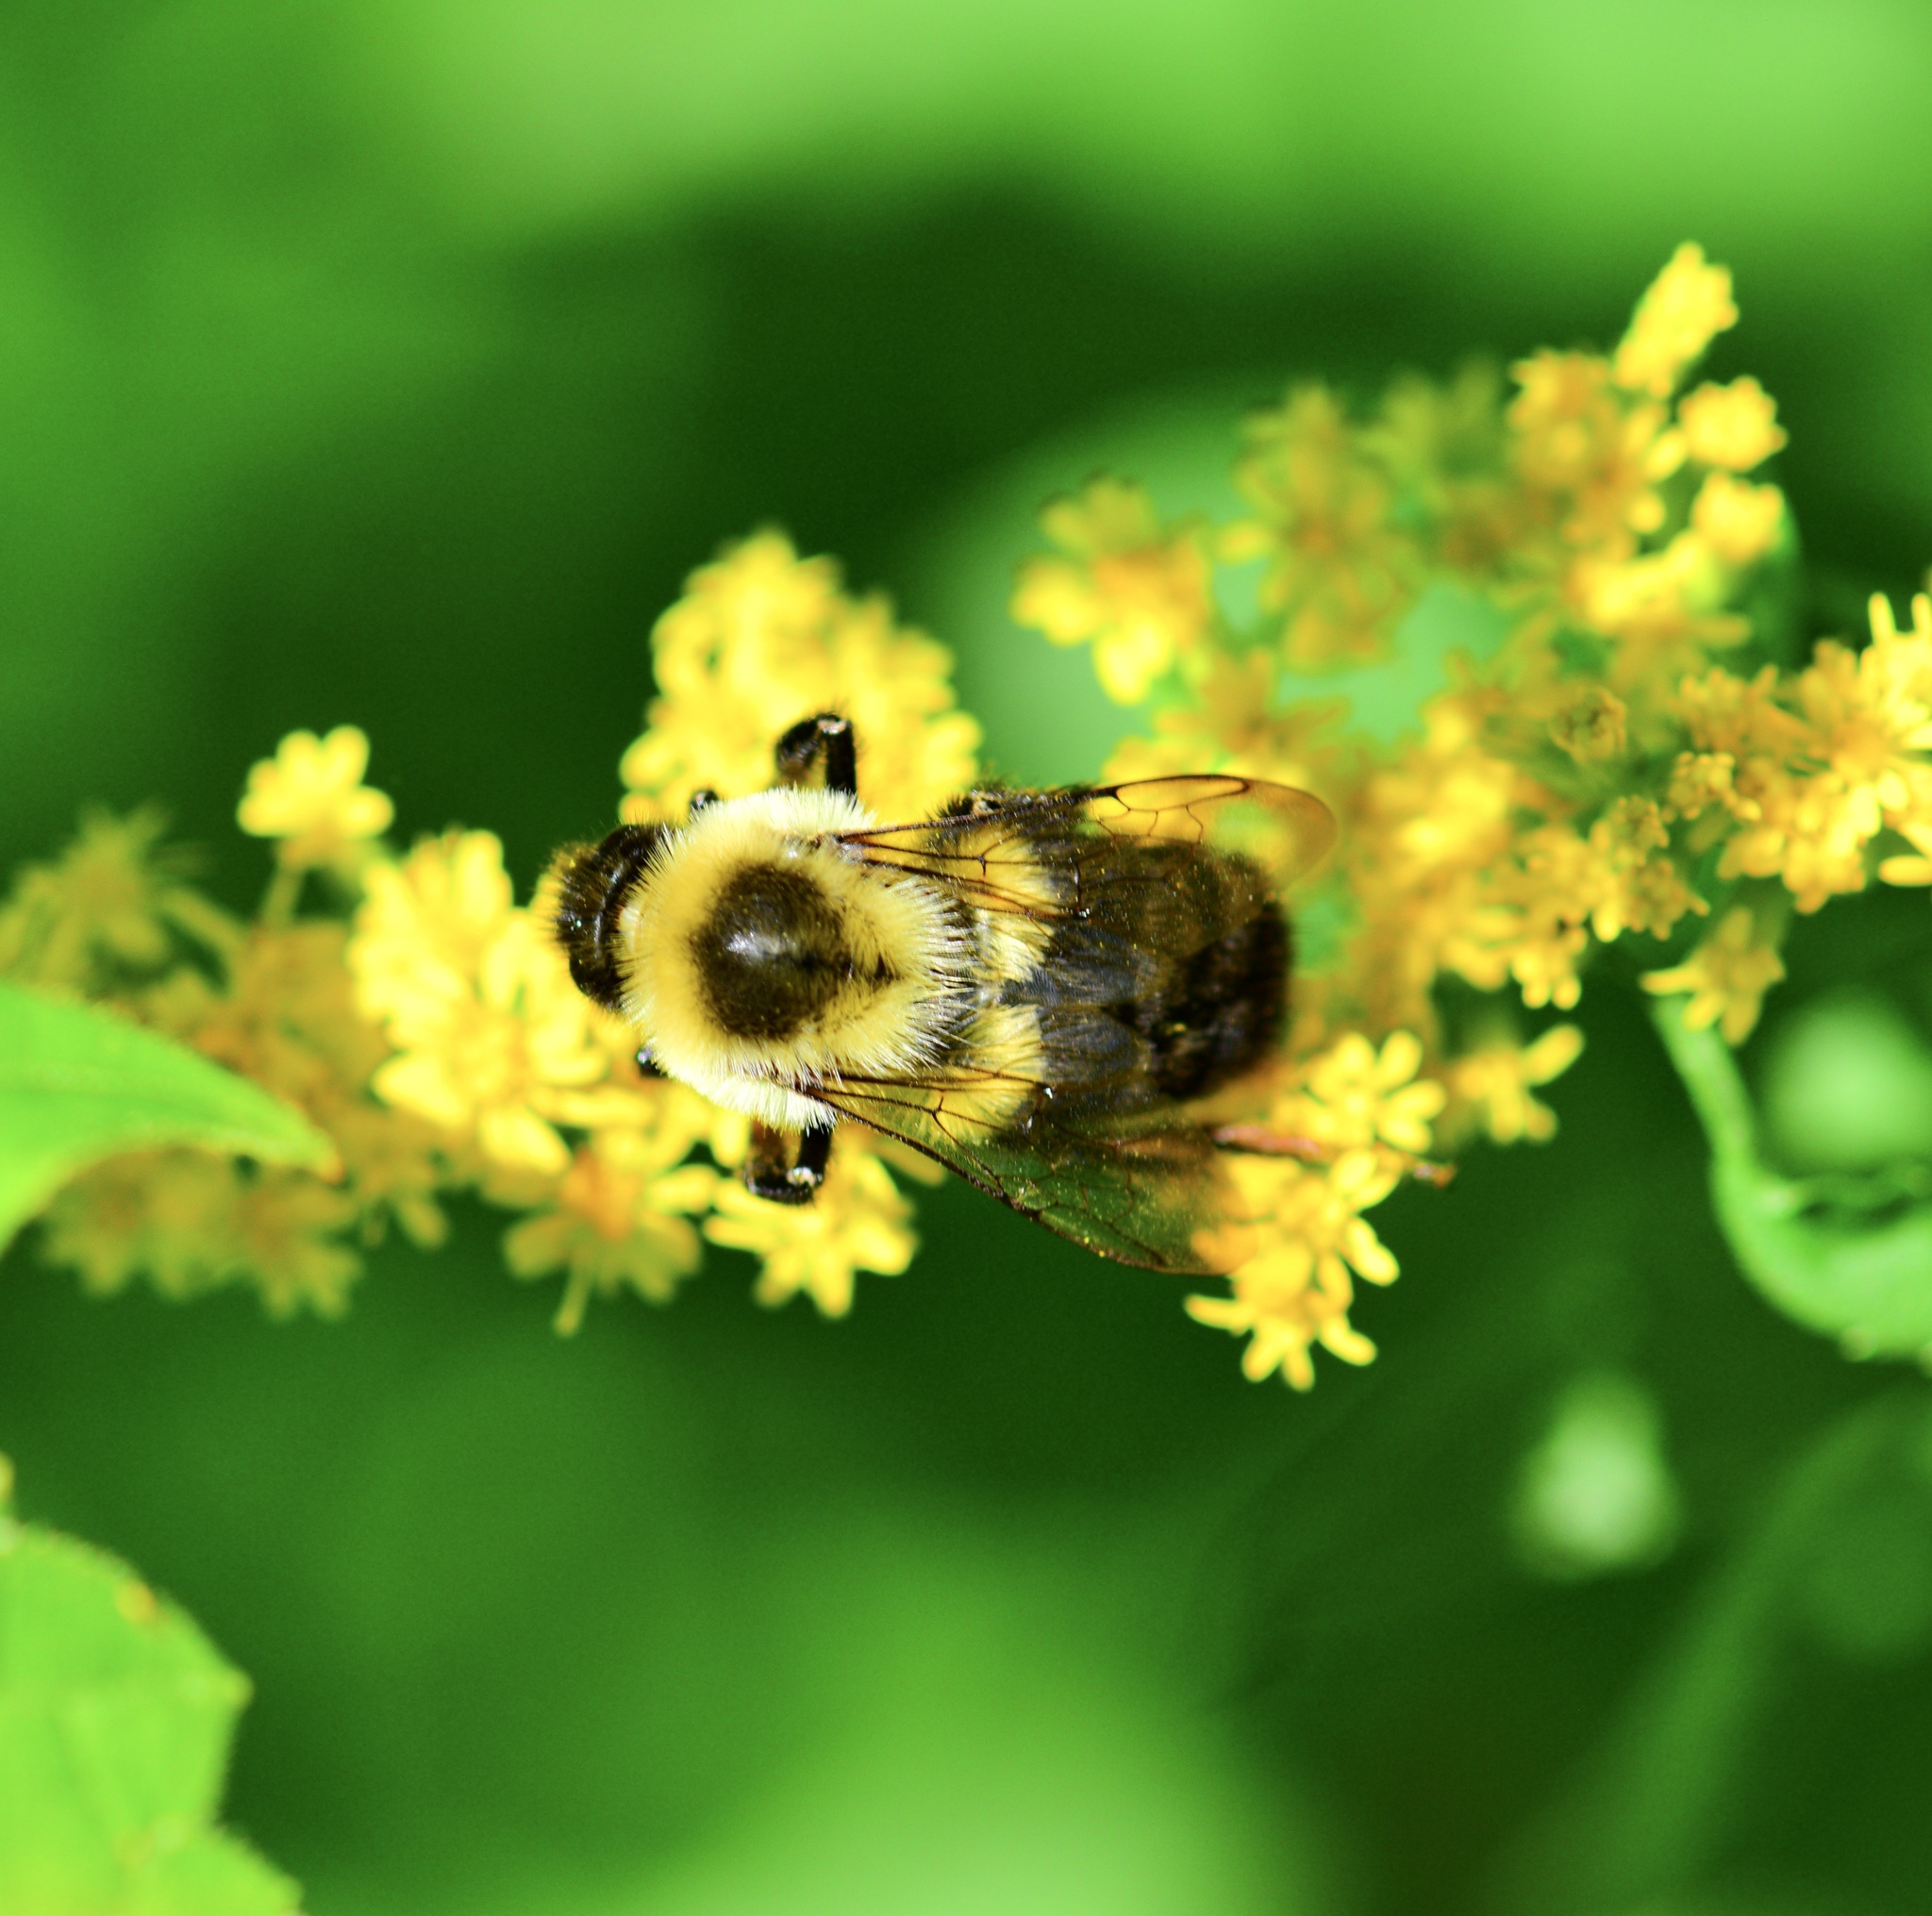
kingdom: Animalia
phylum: Arthropoda
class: Insecta
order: Hymenoptera
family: Apidae
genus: Bombus
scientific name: Bombus impatiens
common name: Common eastern bumble bee
